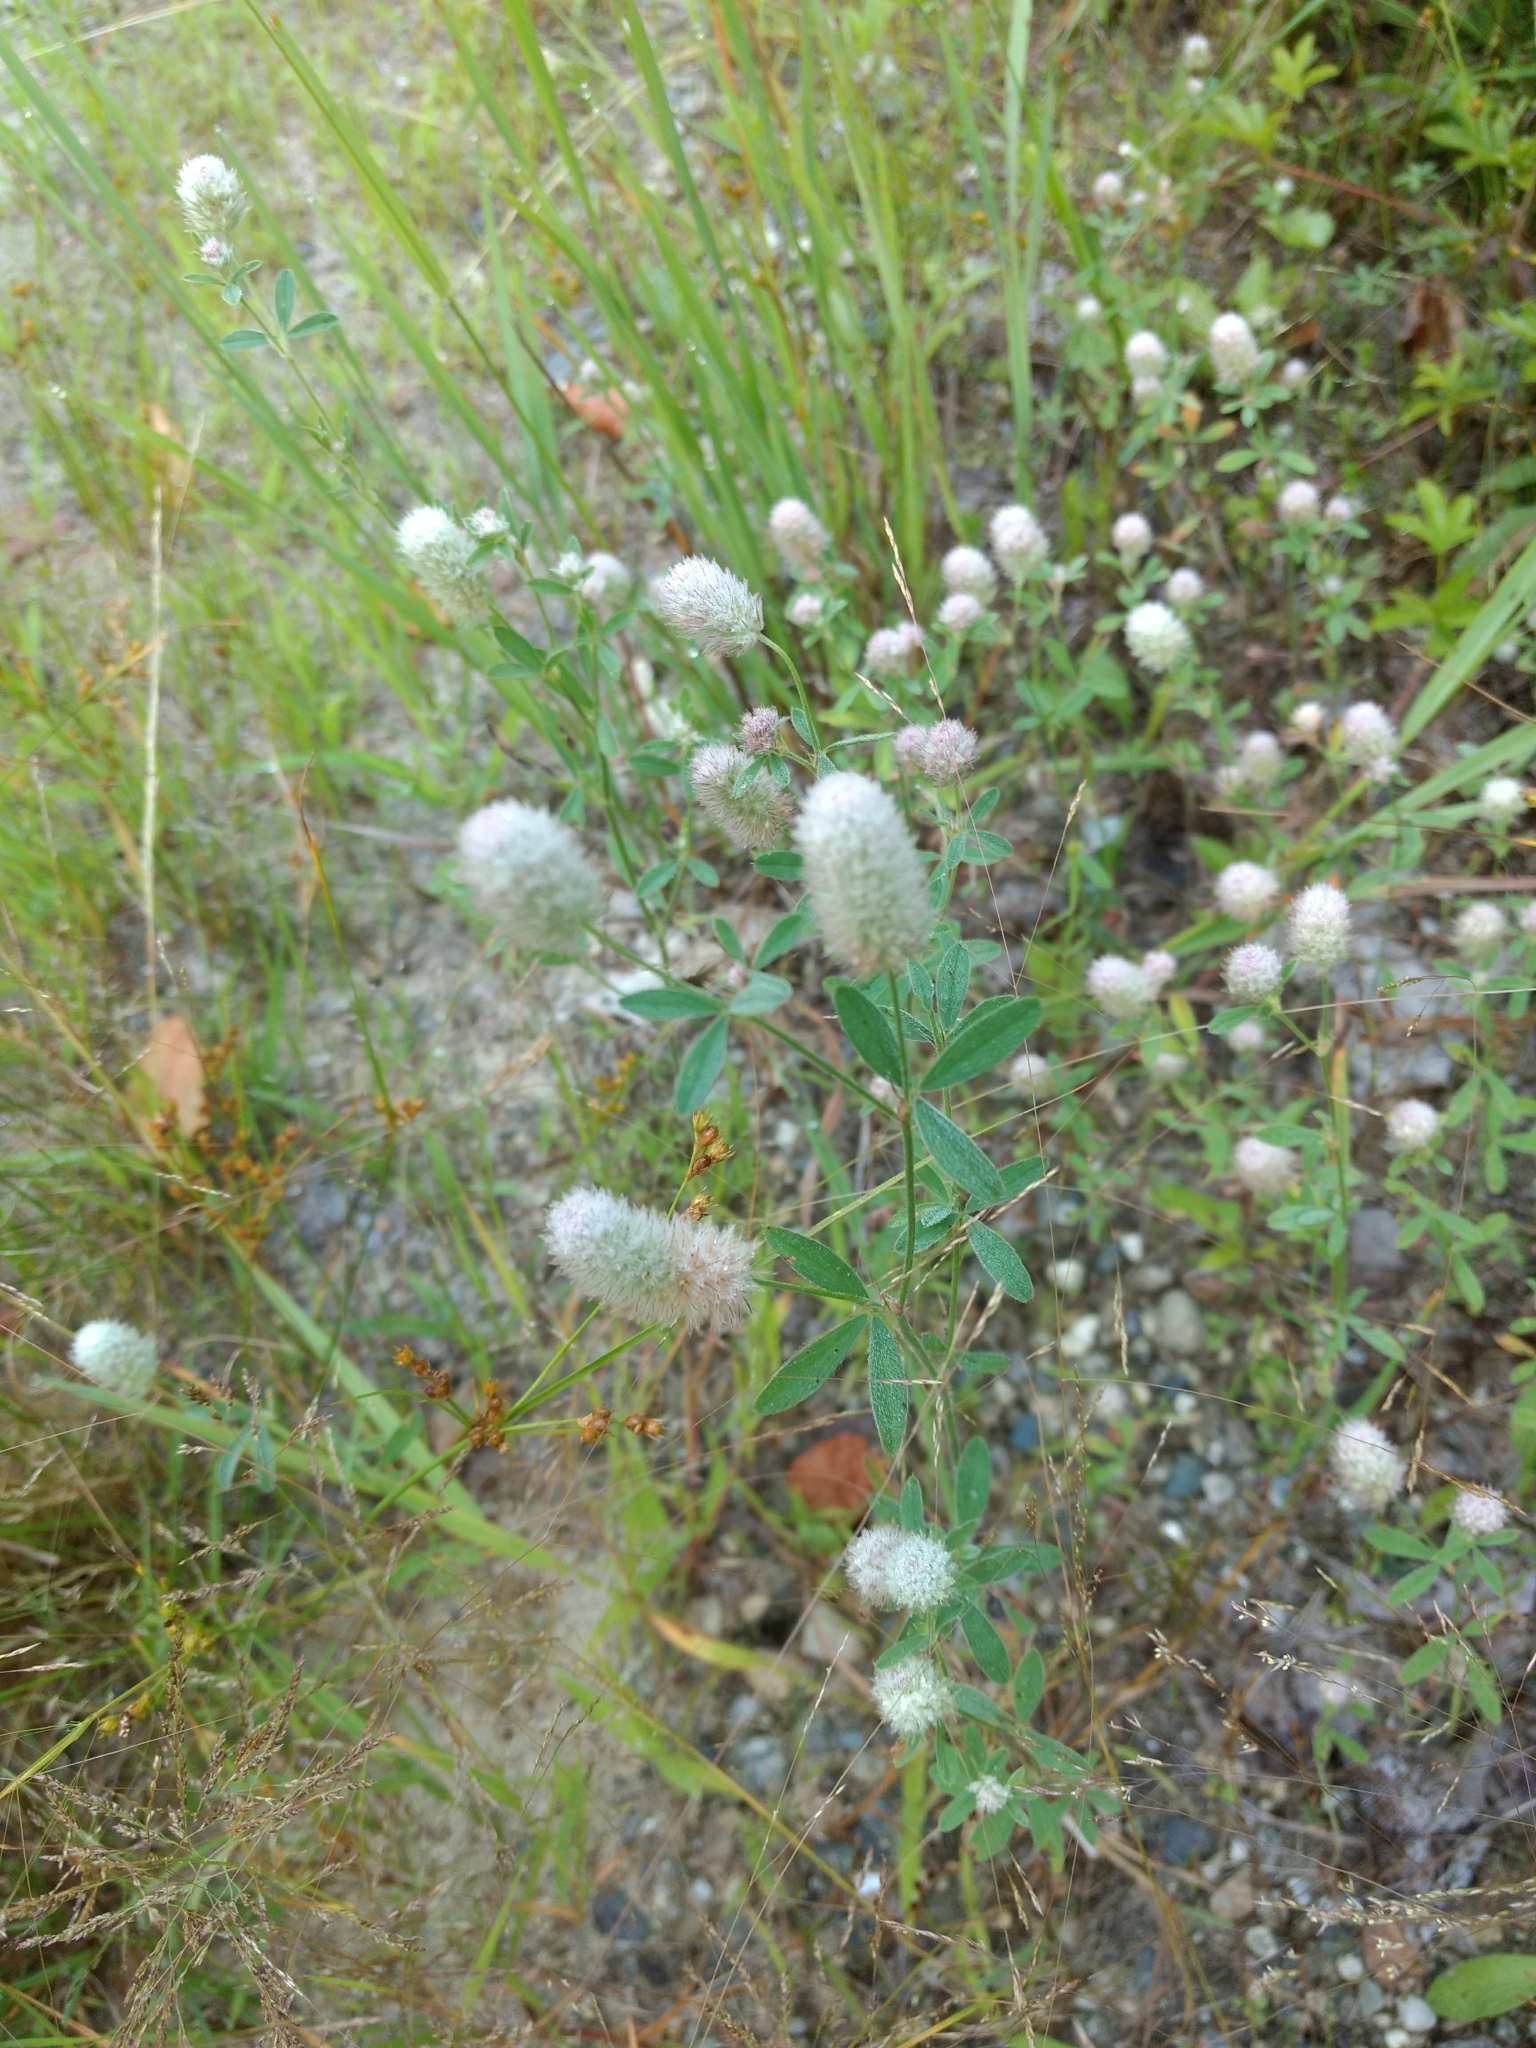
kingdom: Plantae
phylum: Tracheophyta
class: Magnoliopsida
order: Fabales
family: Fabaceae
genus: Trifolium
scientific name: Trifolium arvense
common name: Hare's-foot clover
